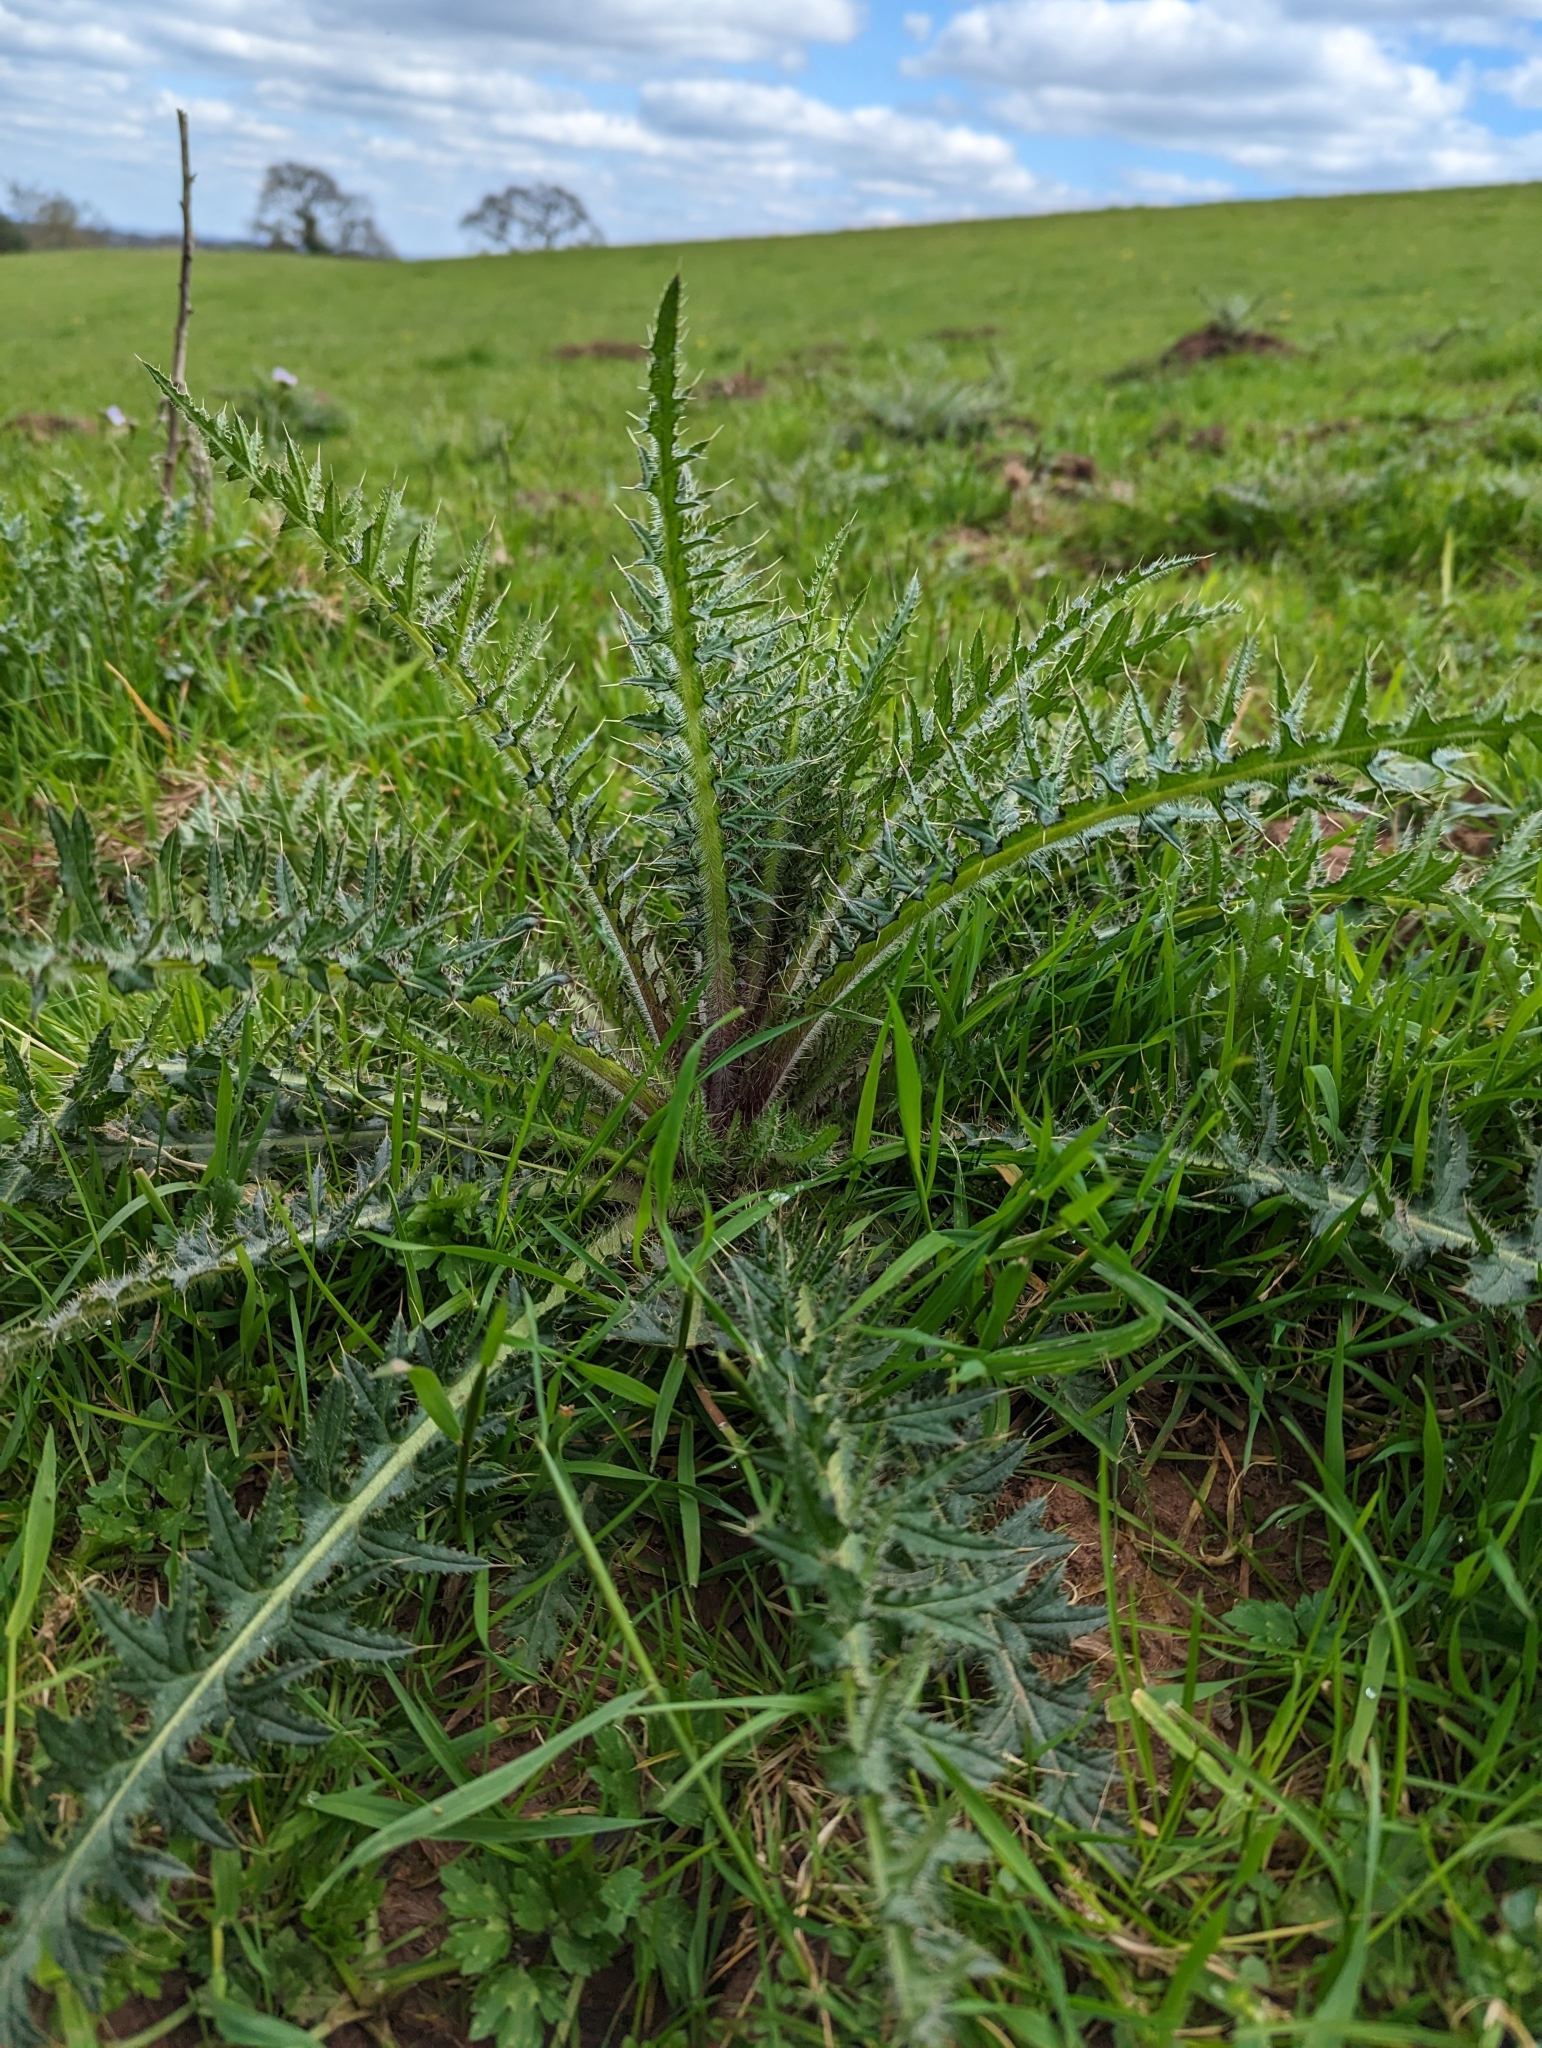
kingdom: Plantae
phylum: Tracheophyta
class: Magnoliopsida
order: Asterales
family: Asteraceae
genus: Cirsium
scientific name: Cirsium palustre
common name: Marsh thistle
